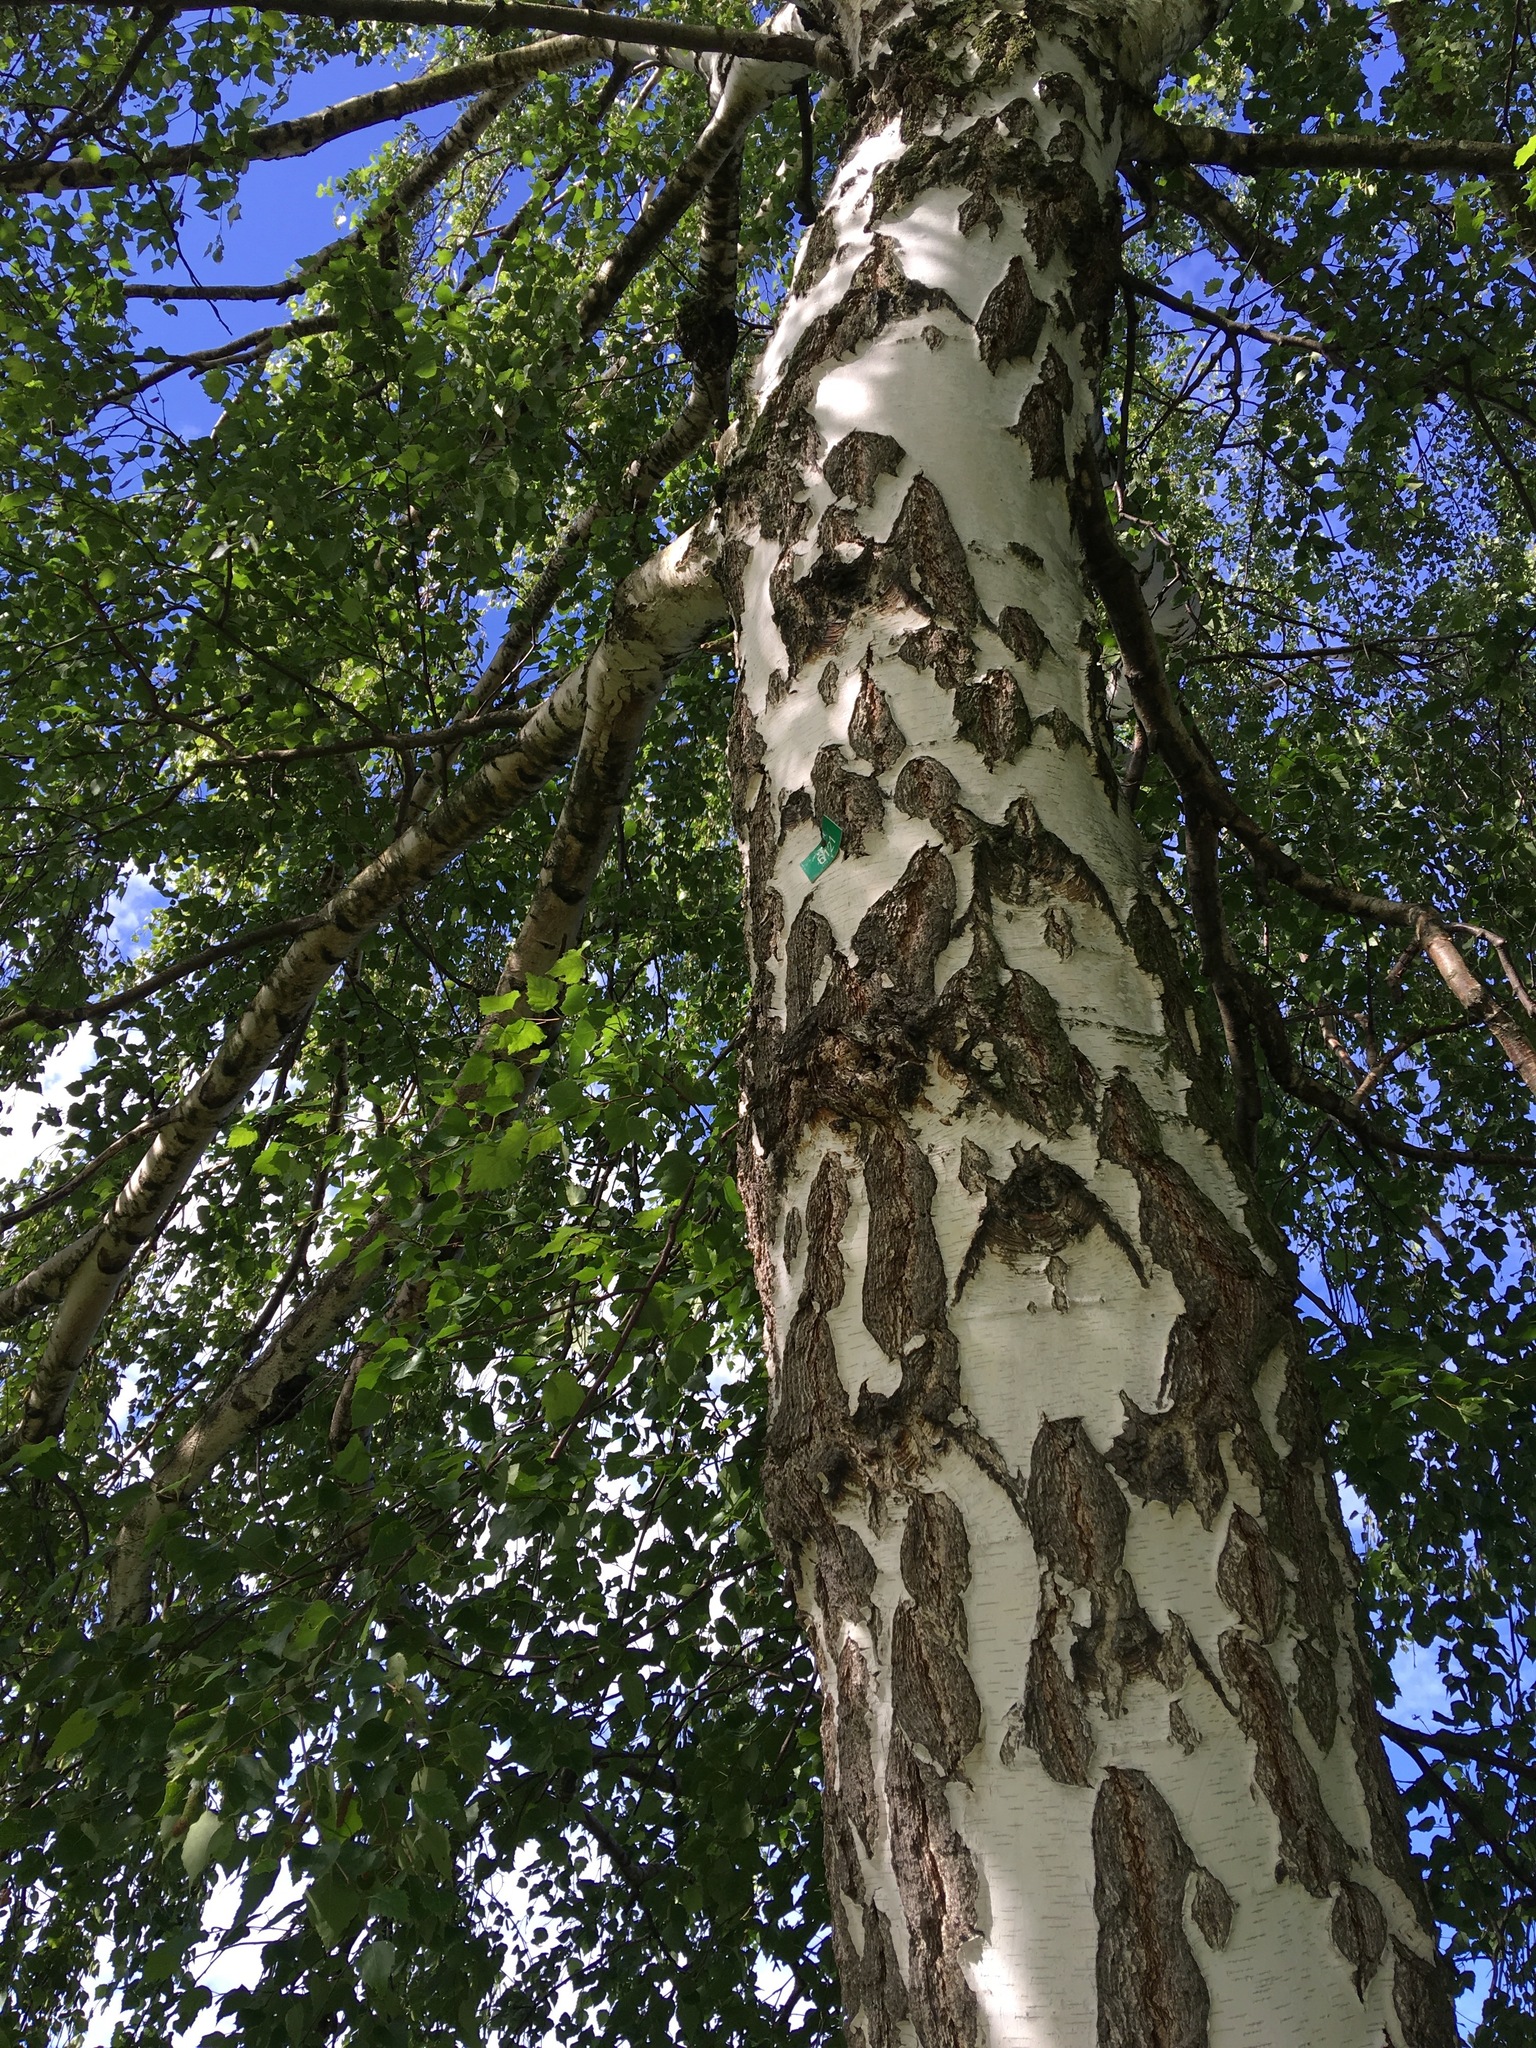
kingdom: Plantae
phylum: Tracheophyta
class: Magnoliopsida
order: Fagales
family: Betulaceae
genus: Betula
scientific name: Betula pendula
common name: Silver birch
